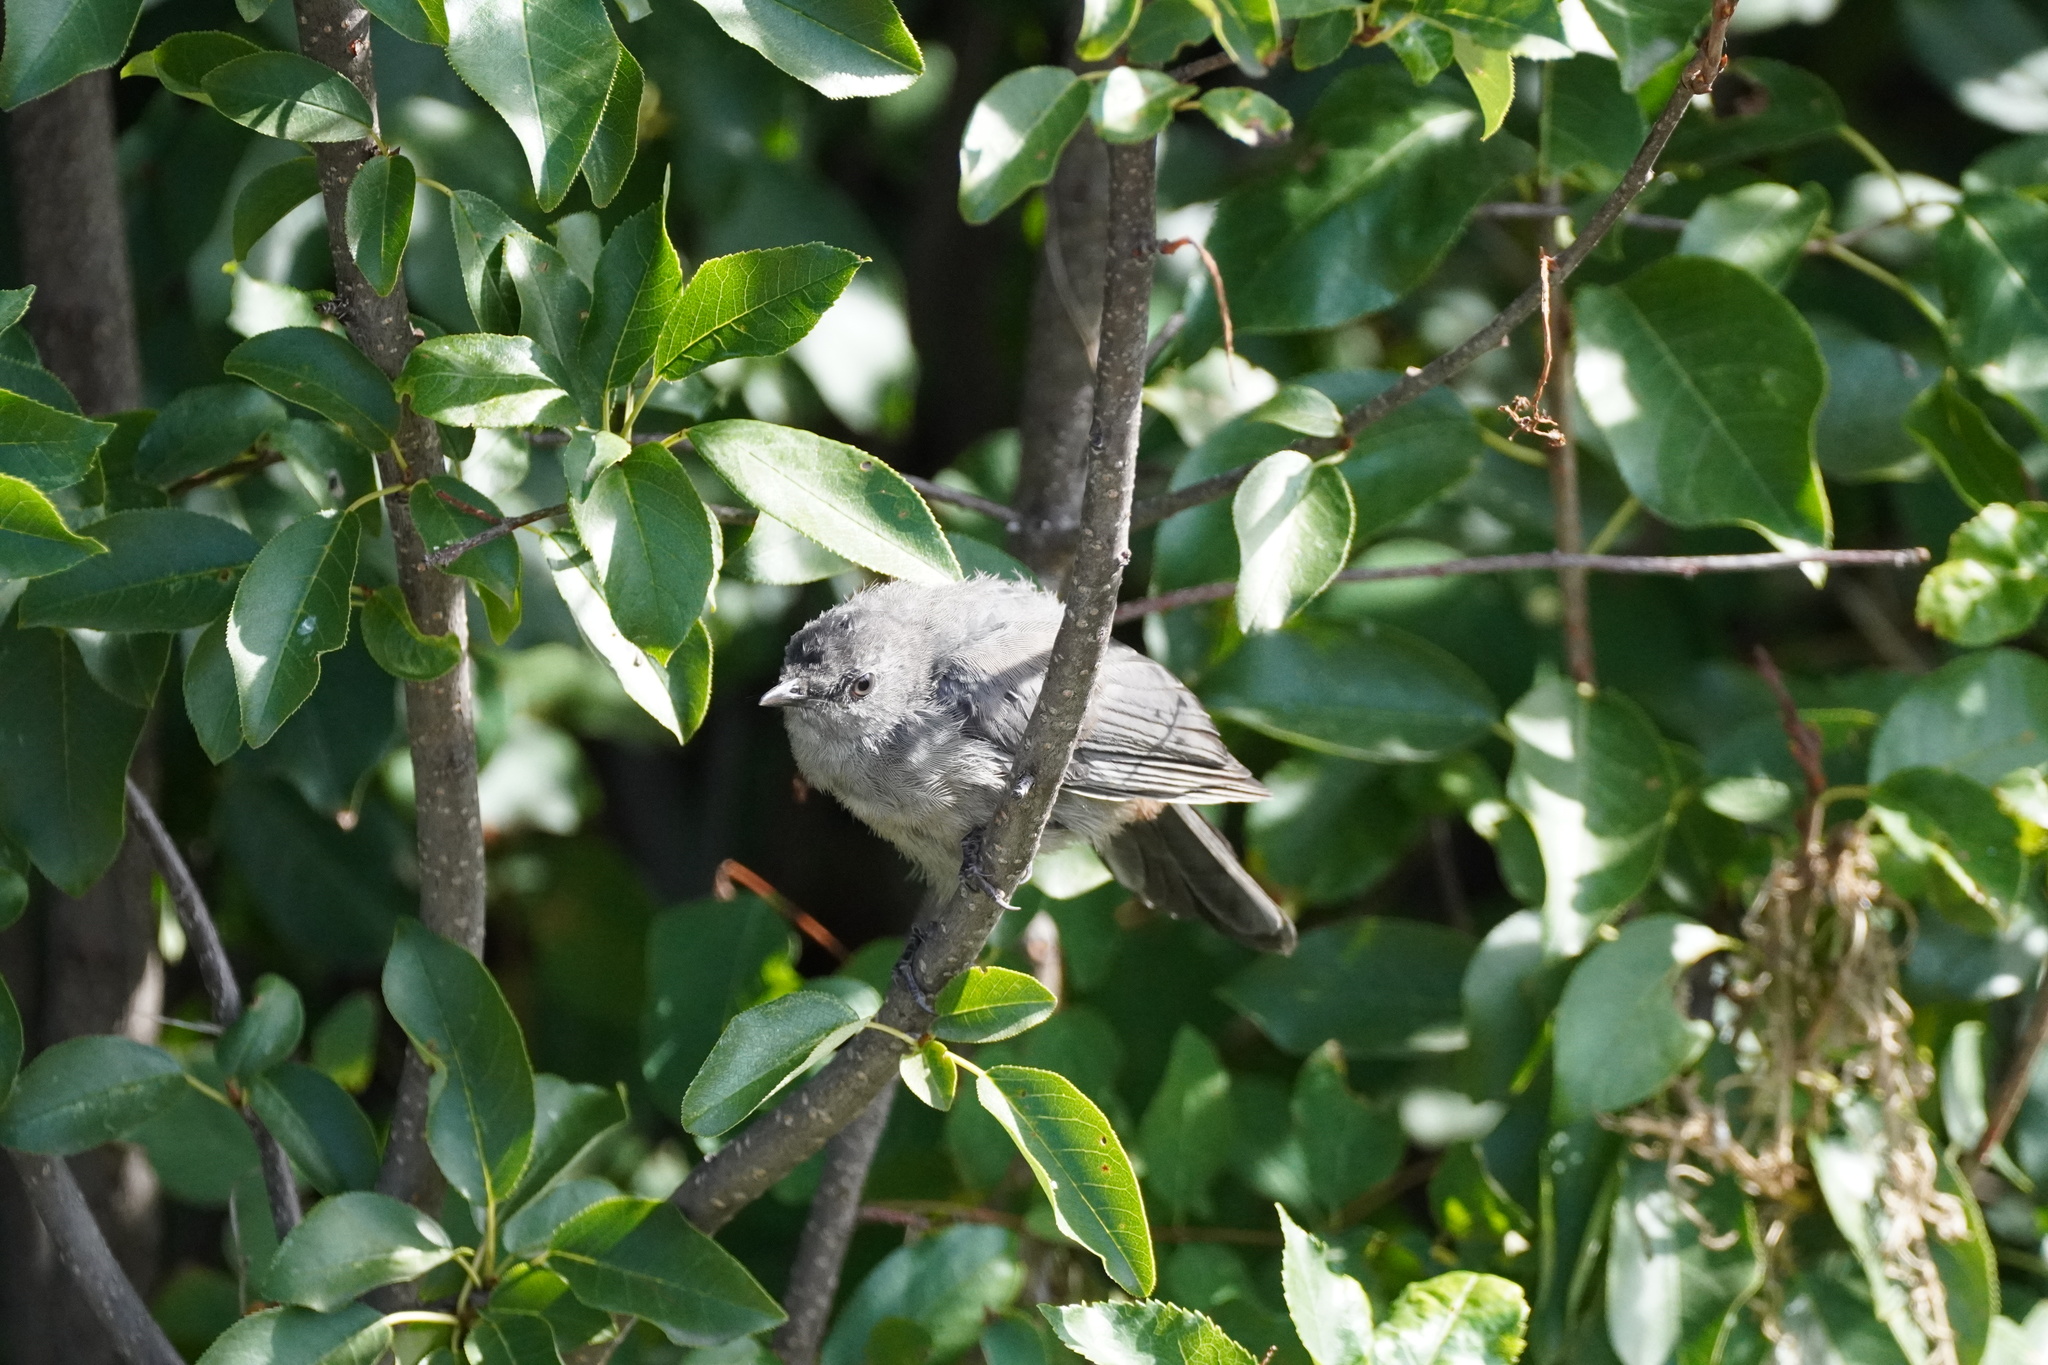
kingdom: Animalia
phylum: Chordata
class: Aves
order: Passeriformes
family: Mimidae
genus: Dumetella
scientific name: Dumetella carolinensis
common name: Gray catbird
